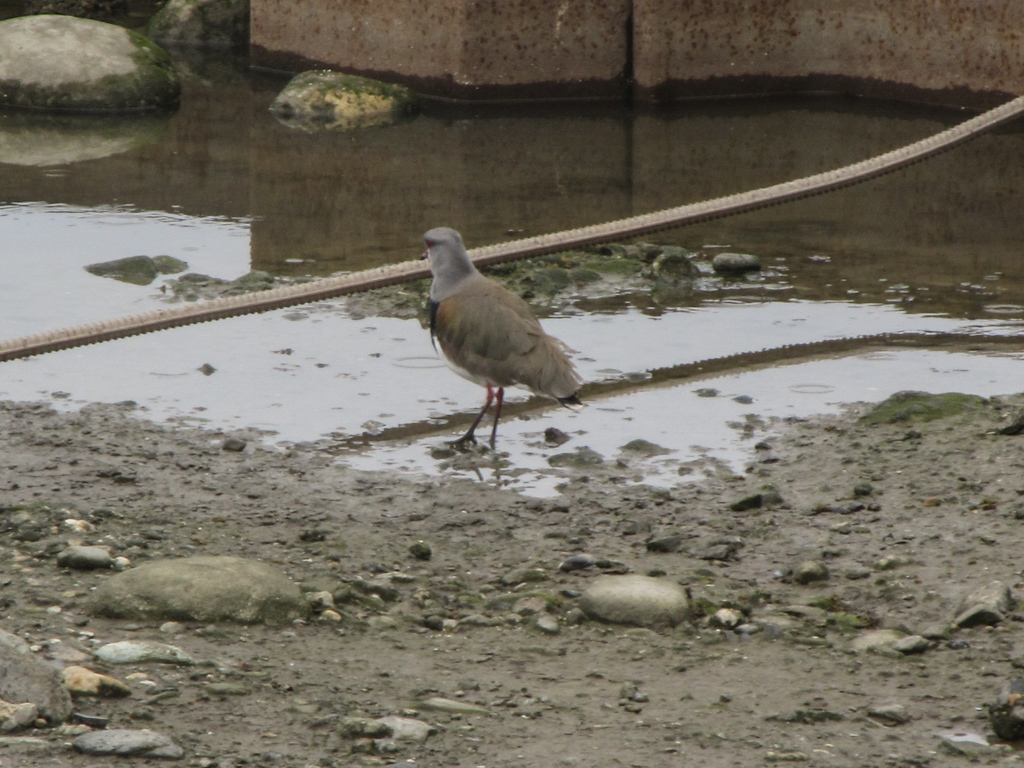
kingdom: Animalia
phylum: Chordata
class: Aves
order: Charadriiformes
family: Charadriidae
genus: Vanellus
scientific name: Vanellus chilensis
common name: Southern lapwing
